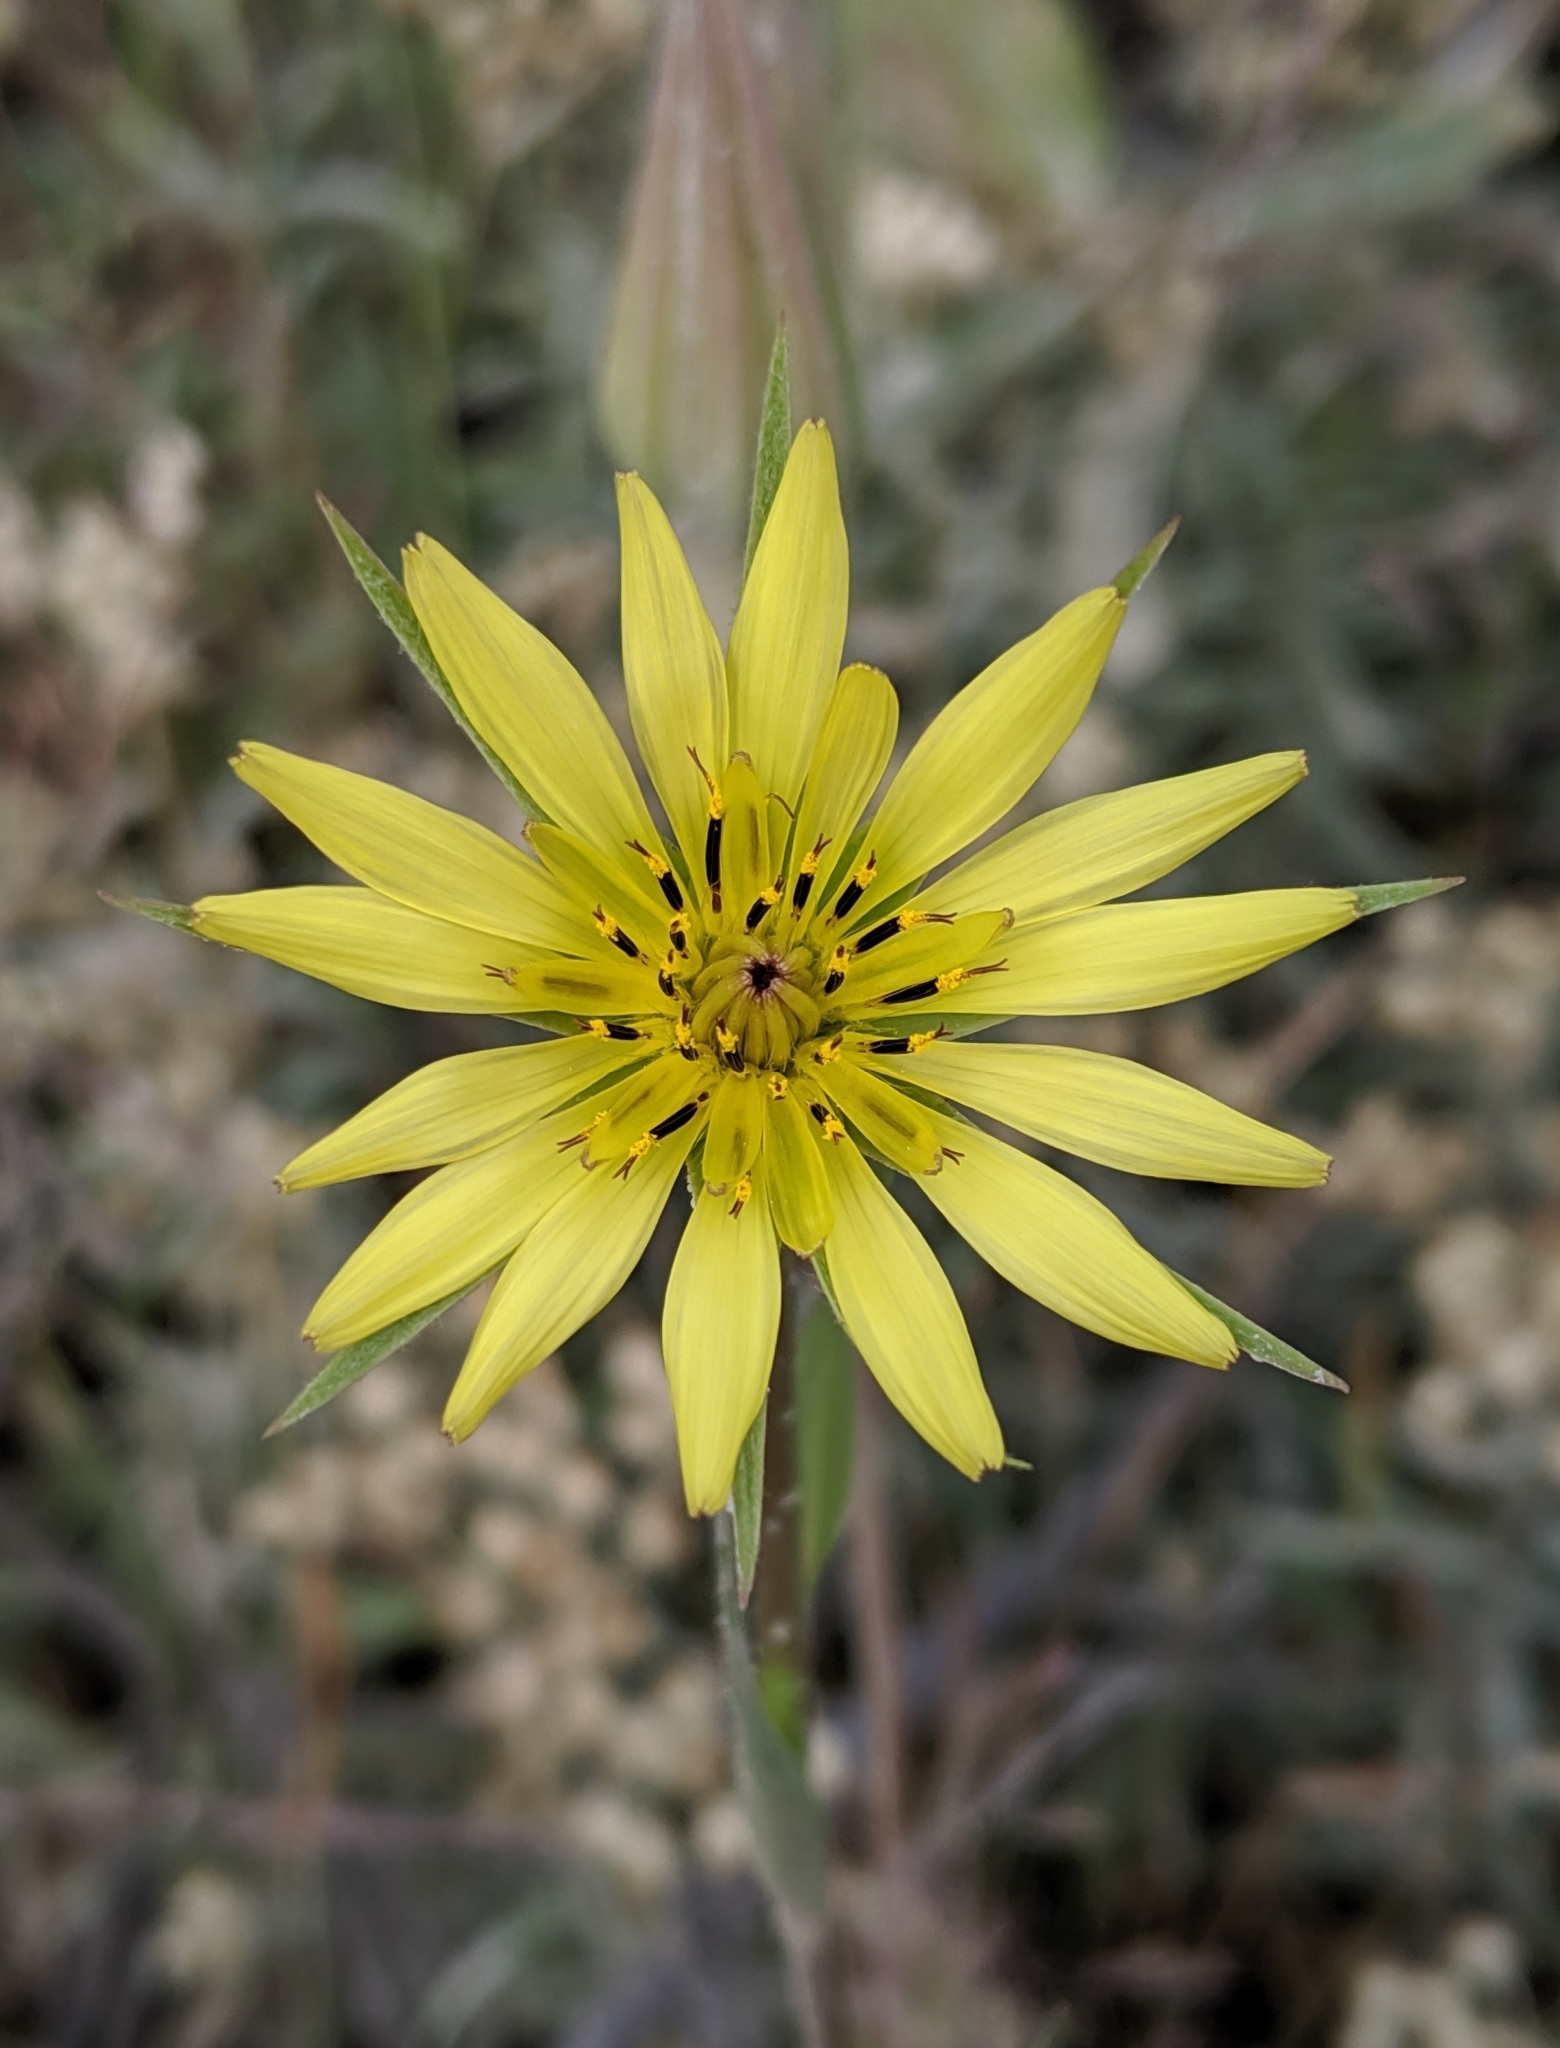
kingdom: Plantae
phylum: Tracheophyta
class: Magnoliopsida
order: Asterales
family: Asteraceae
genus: Tragopogon
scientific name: Tragopogon dubius
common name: Yellow salsify
